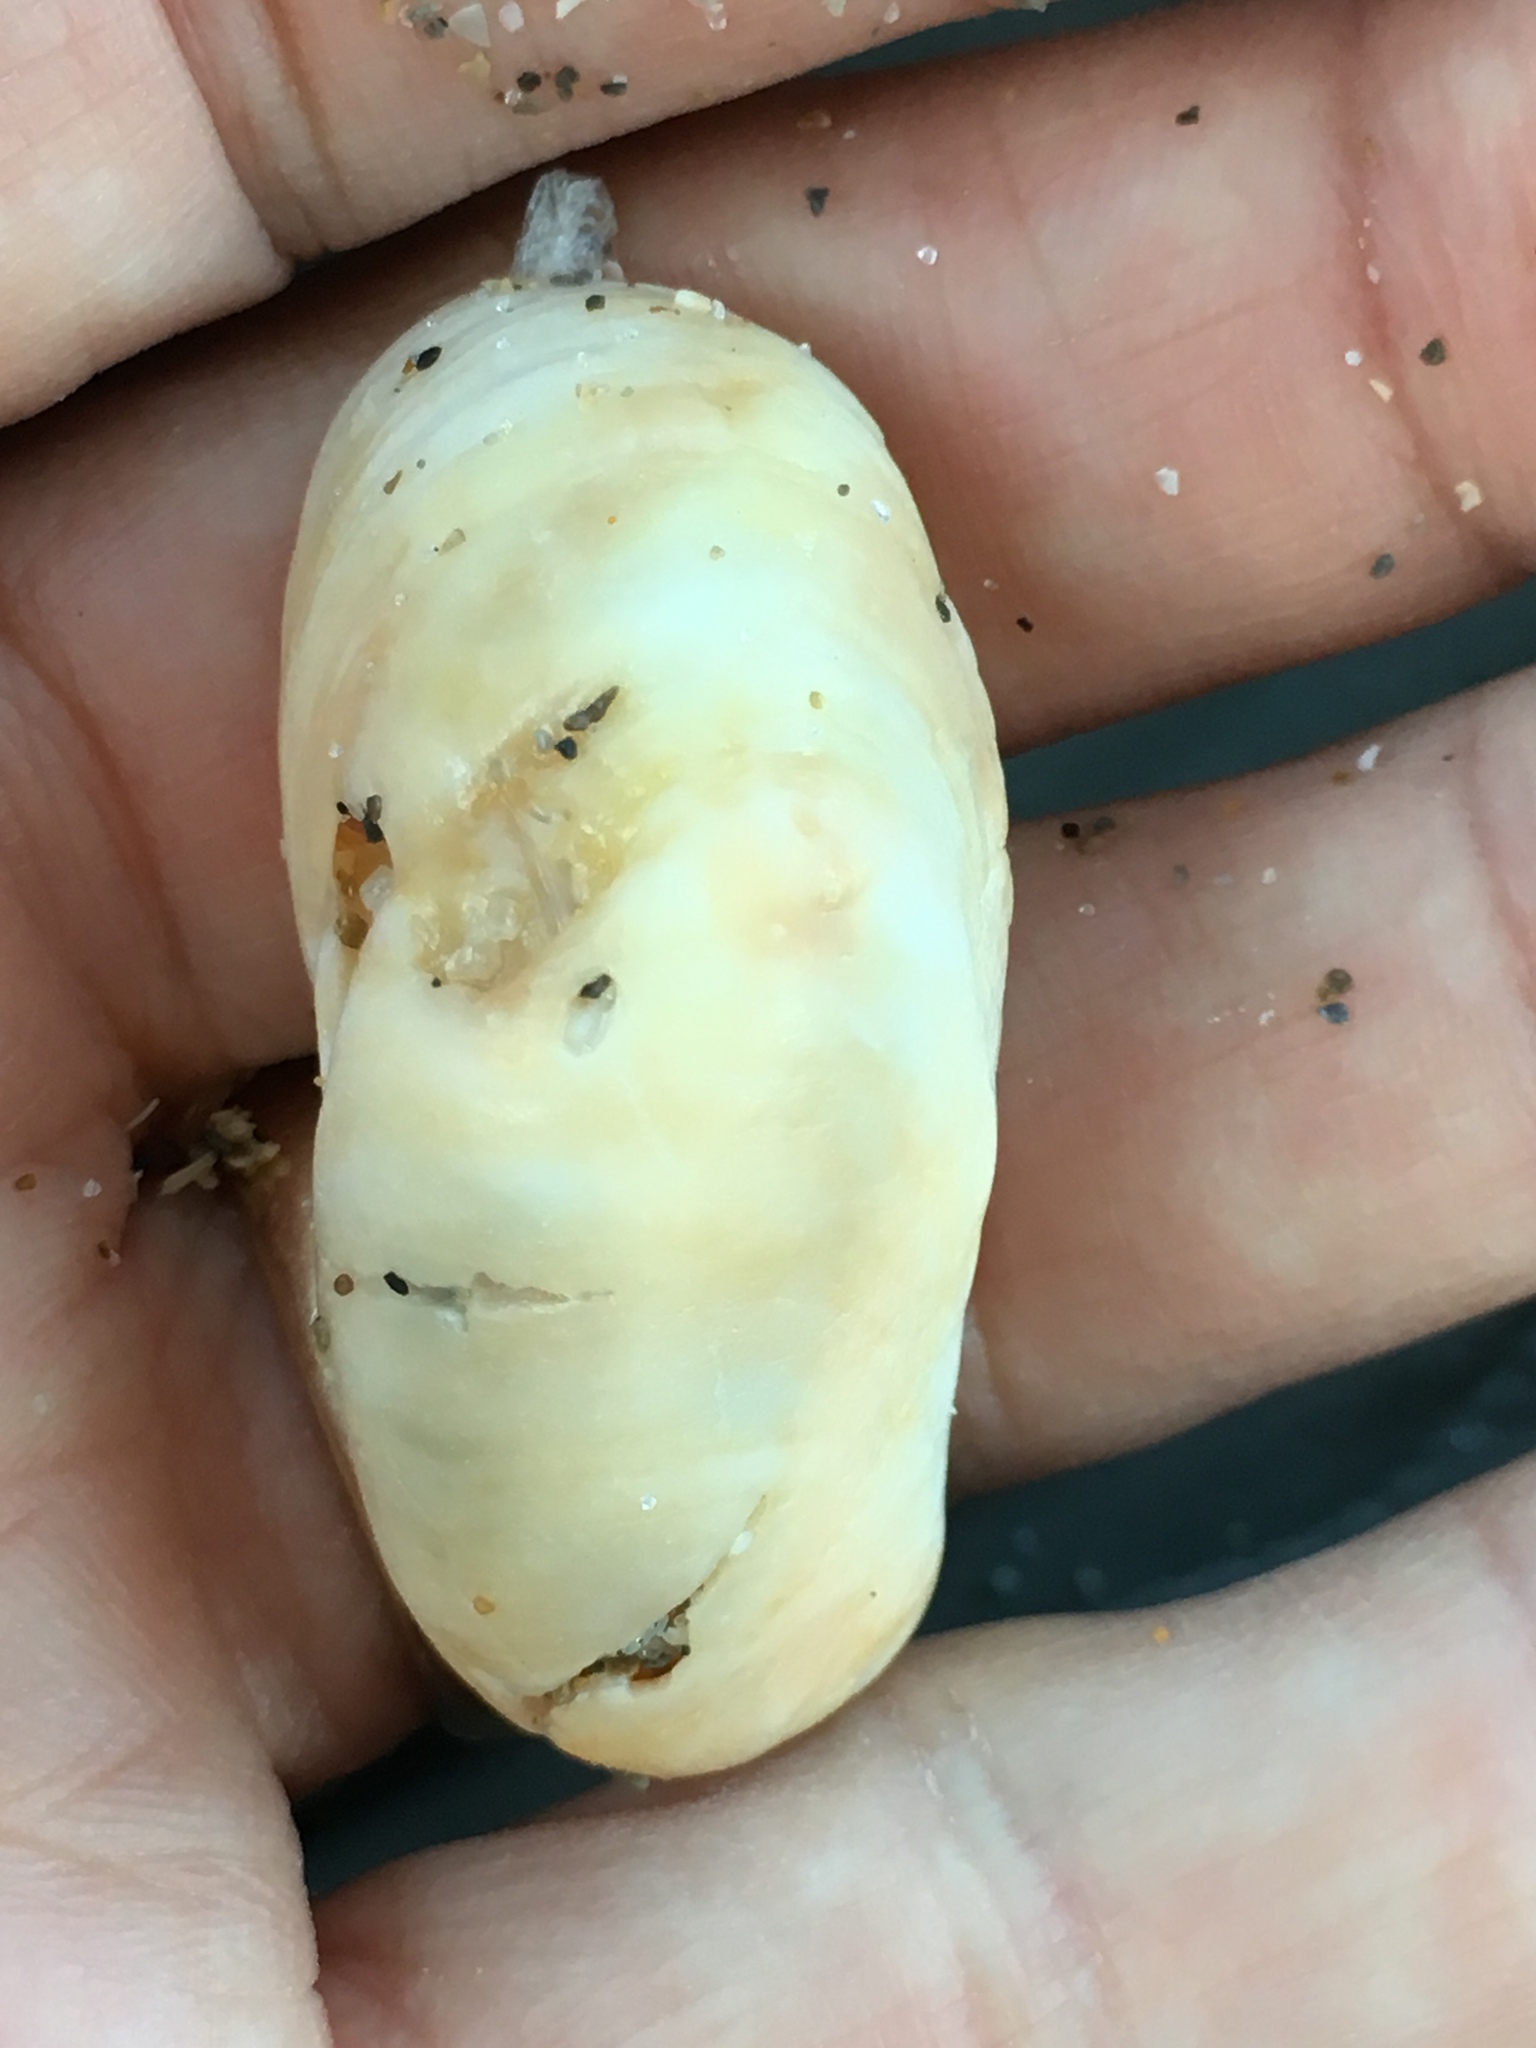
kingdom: Animalia
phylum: Mollusca
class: Gastropoda
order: Littorinimorpha
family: Calyptraeidae
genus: Crepidula
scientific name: Crepidula fornicata
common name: Slipper limpet
